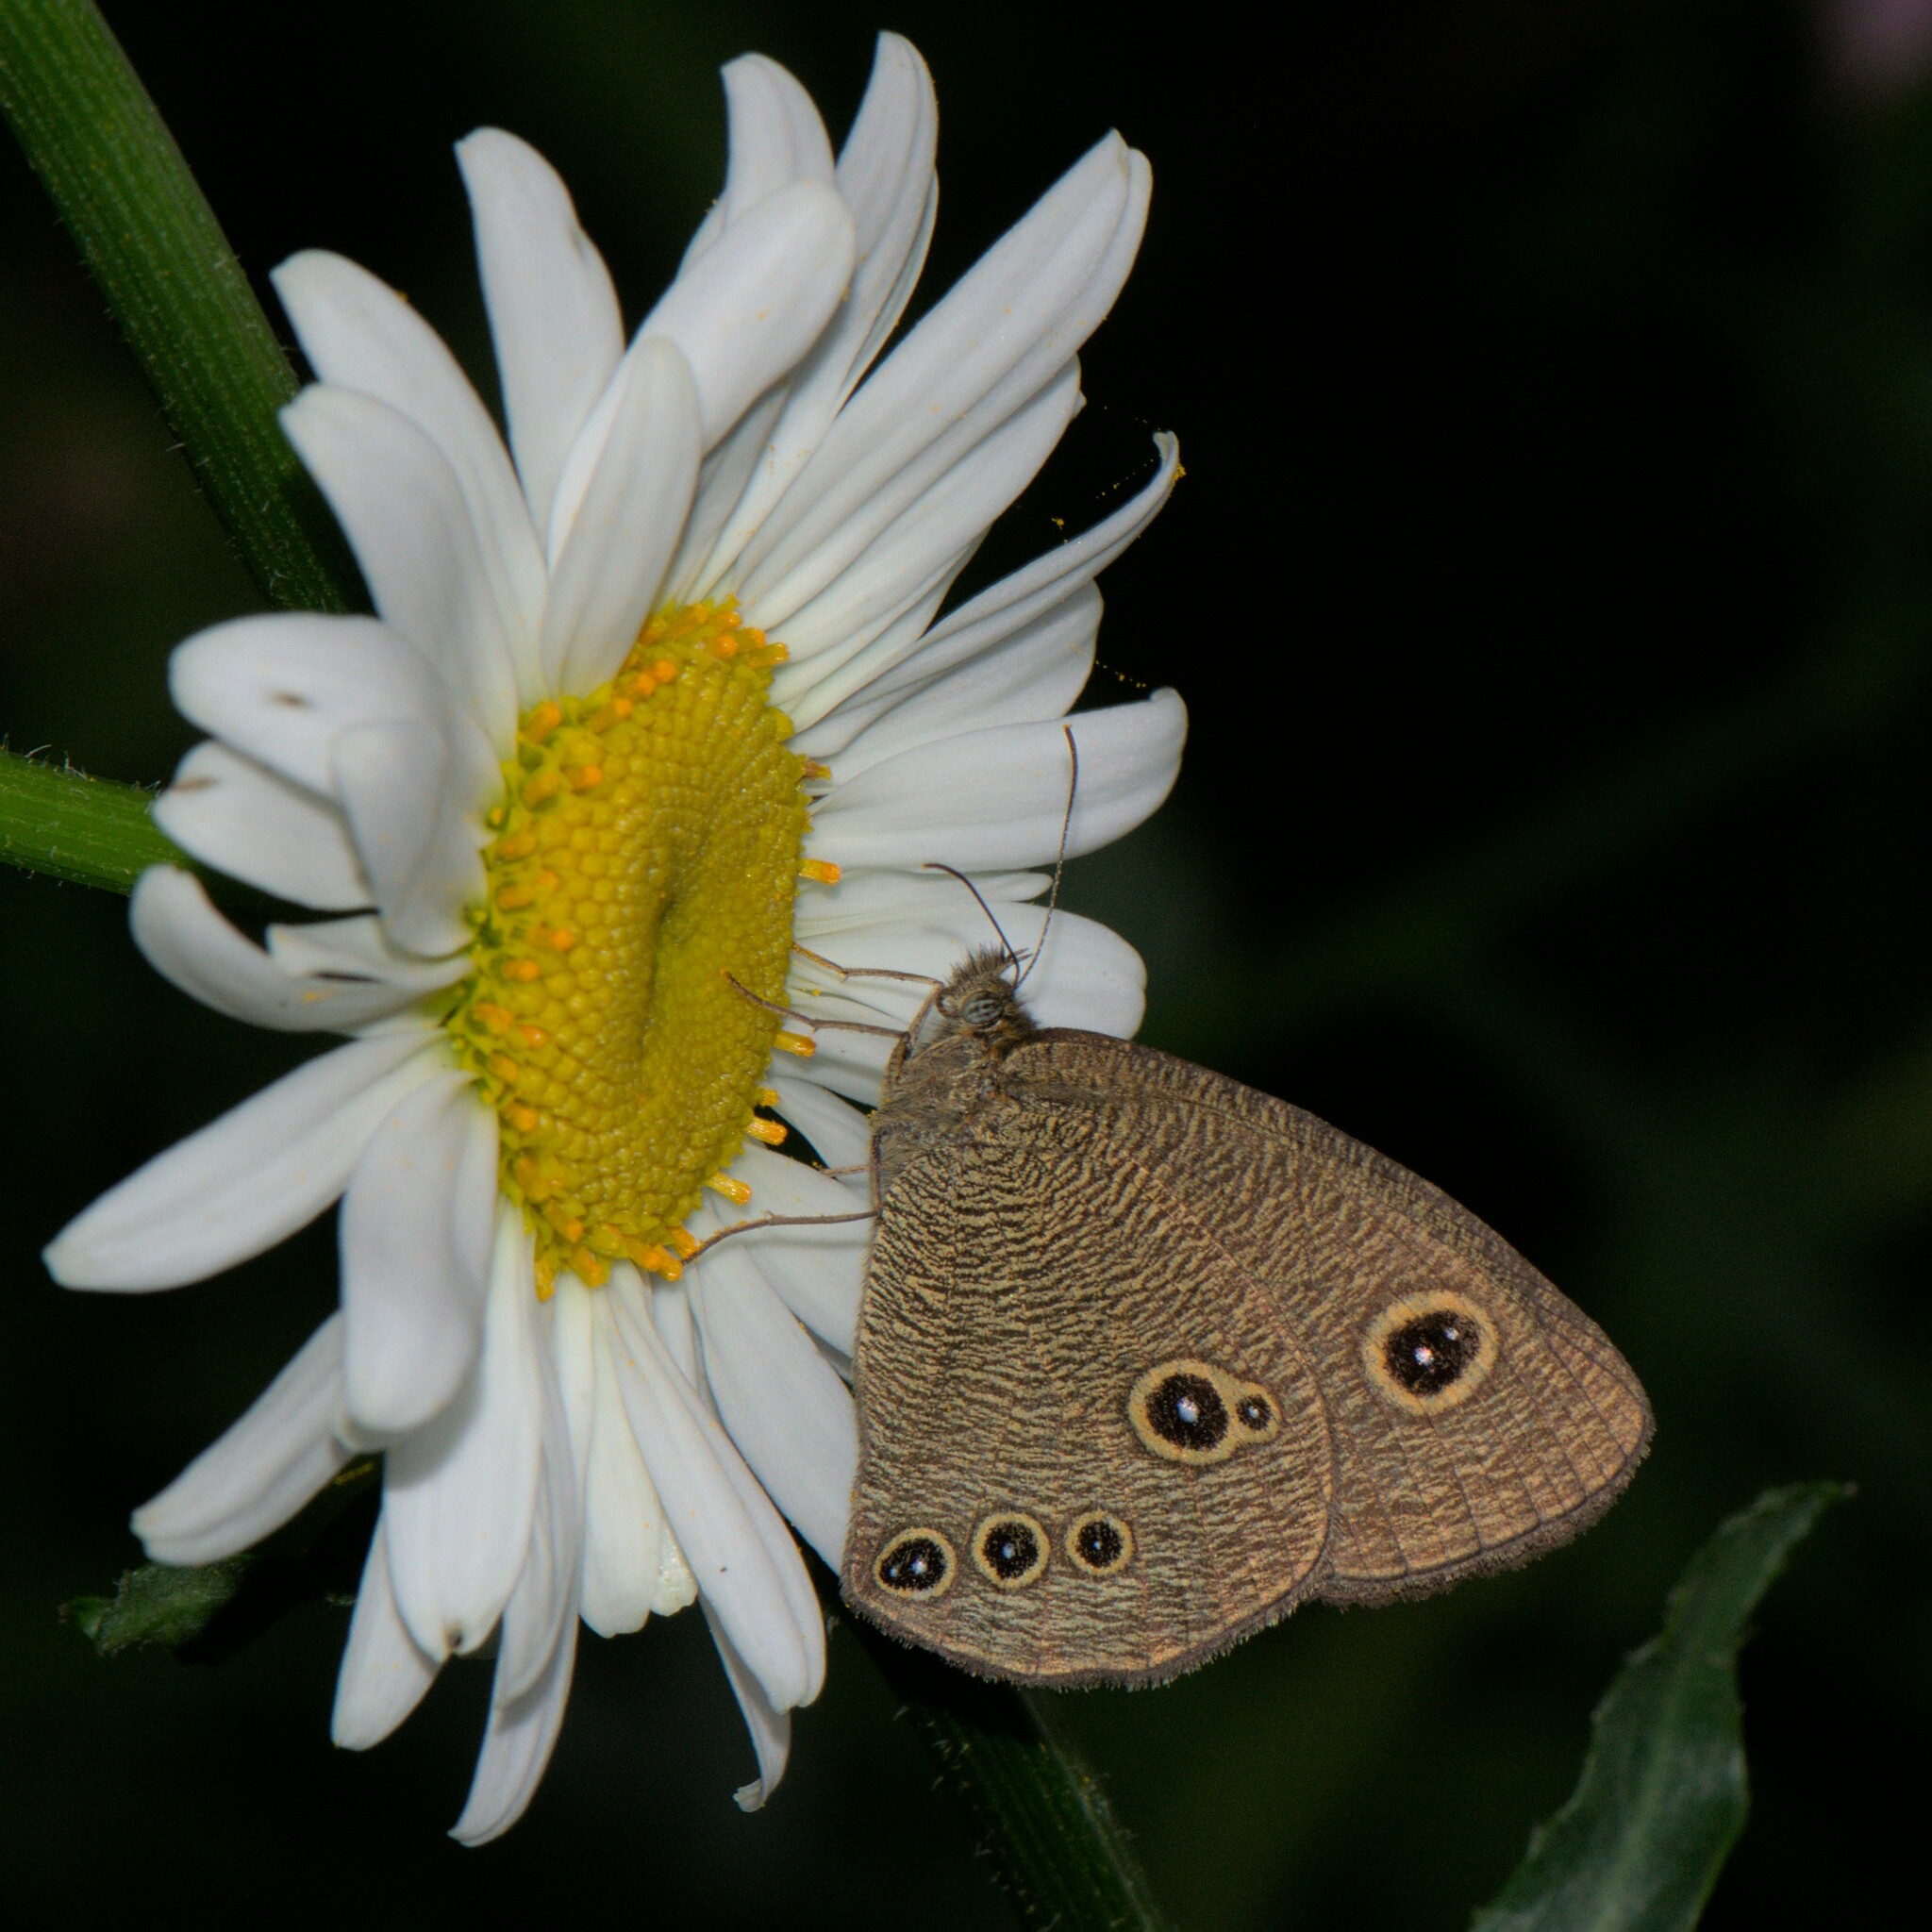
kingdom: Animalia
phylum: Arthropoda
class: Insecta
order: Lepidoptera
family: Nymphalidae
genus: Ypthima
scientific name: Ypthima nikaea
